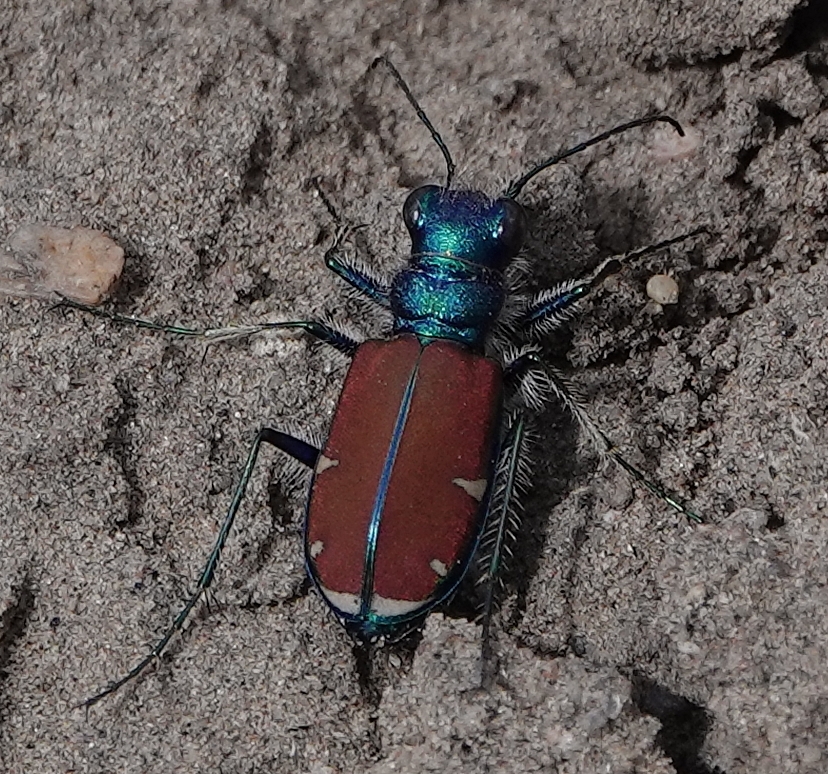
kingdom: Animalia
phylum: Arthropoda
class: Insecta
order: Coleoptera
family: Carabidae
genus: Cicindela
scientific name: Cicindela splendida
